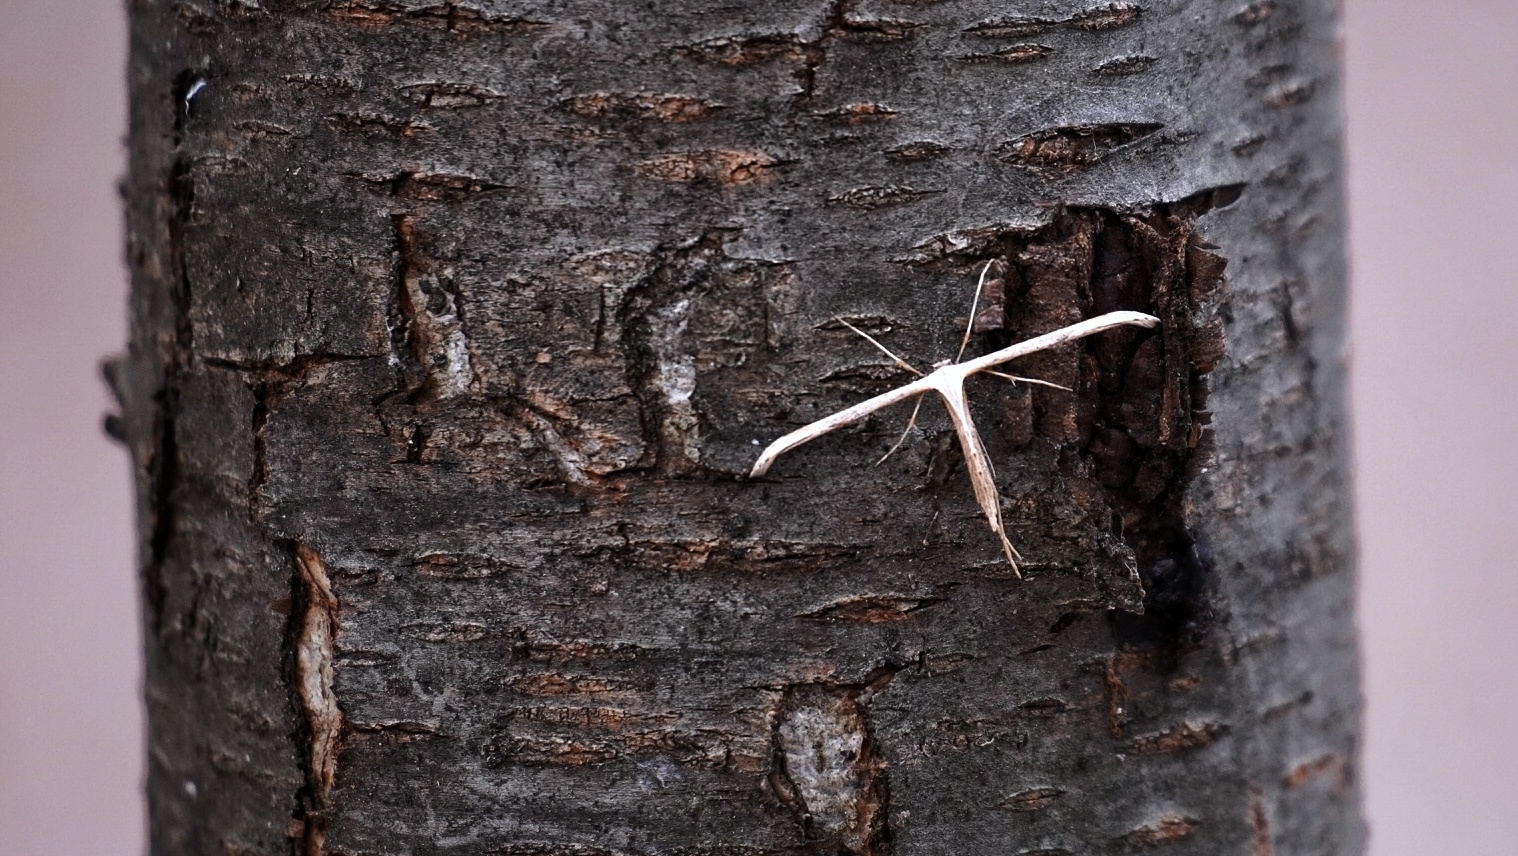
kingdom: Animalia
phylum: Arthropoda
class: Insecta
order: Lepidoptera
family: Pterophoridae
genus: Emmelina
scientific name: Emmelina monodactyla
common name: Common plume
